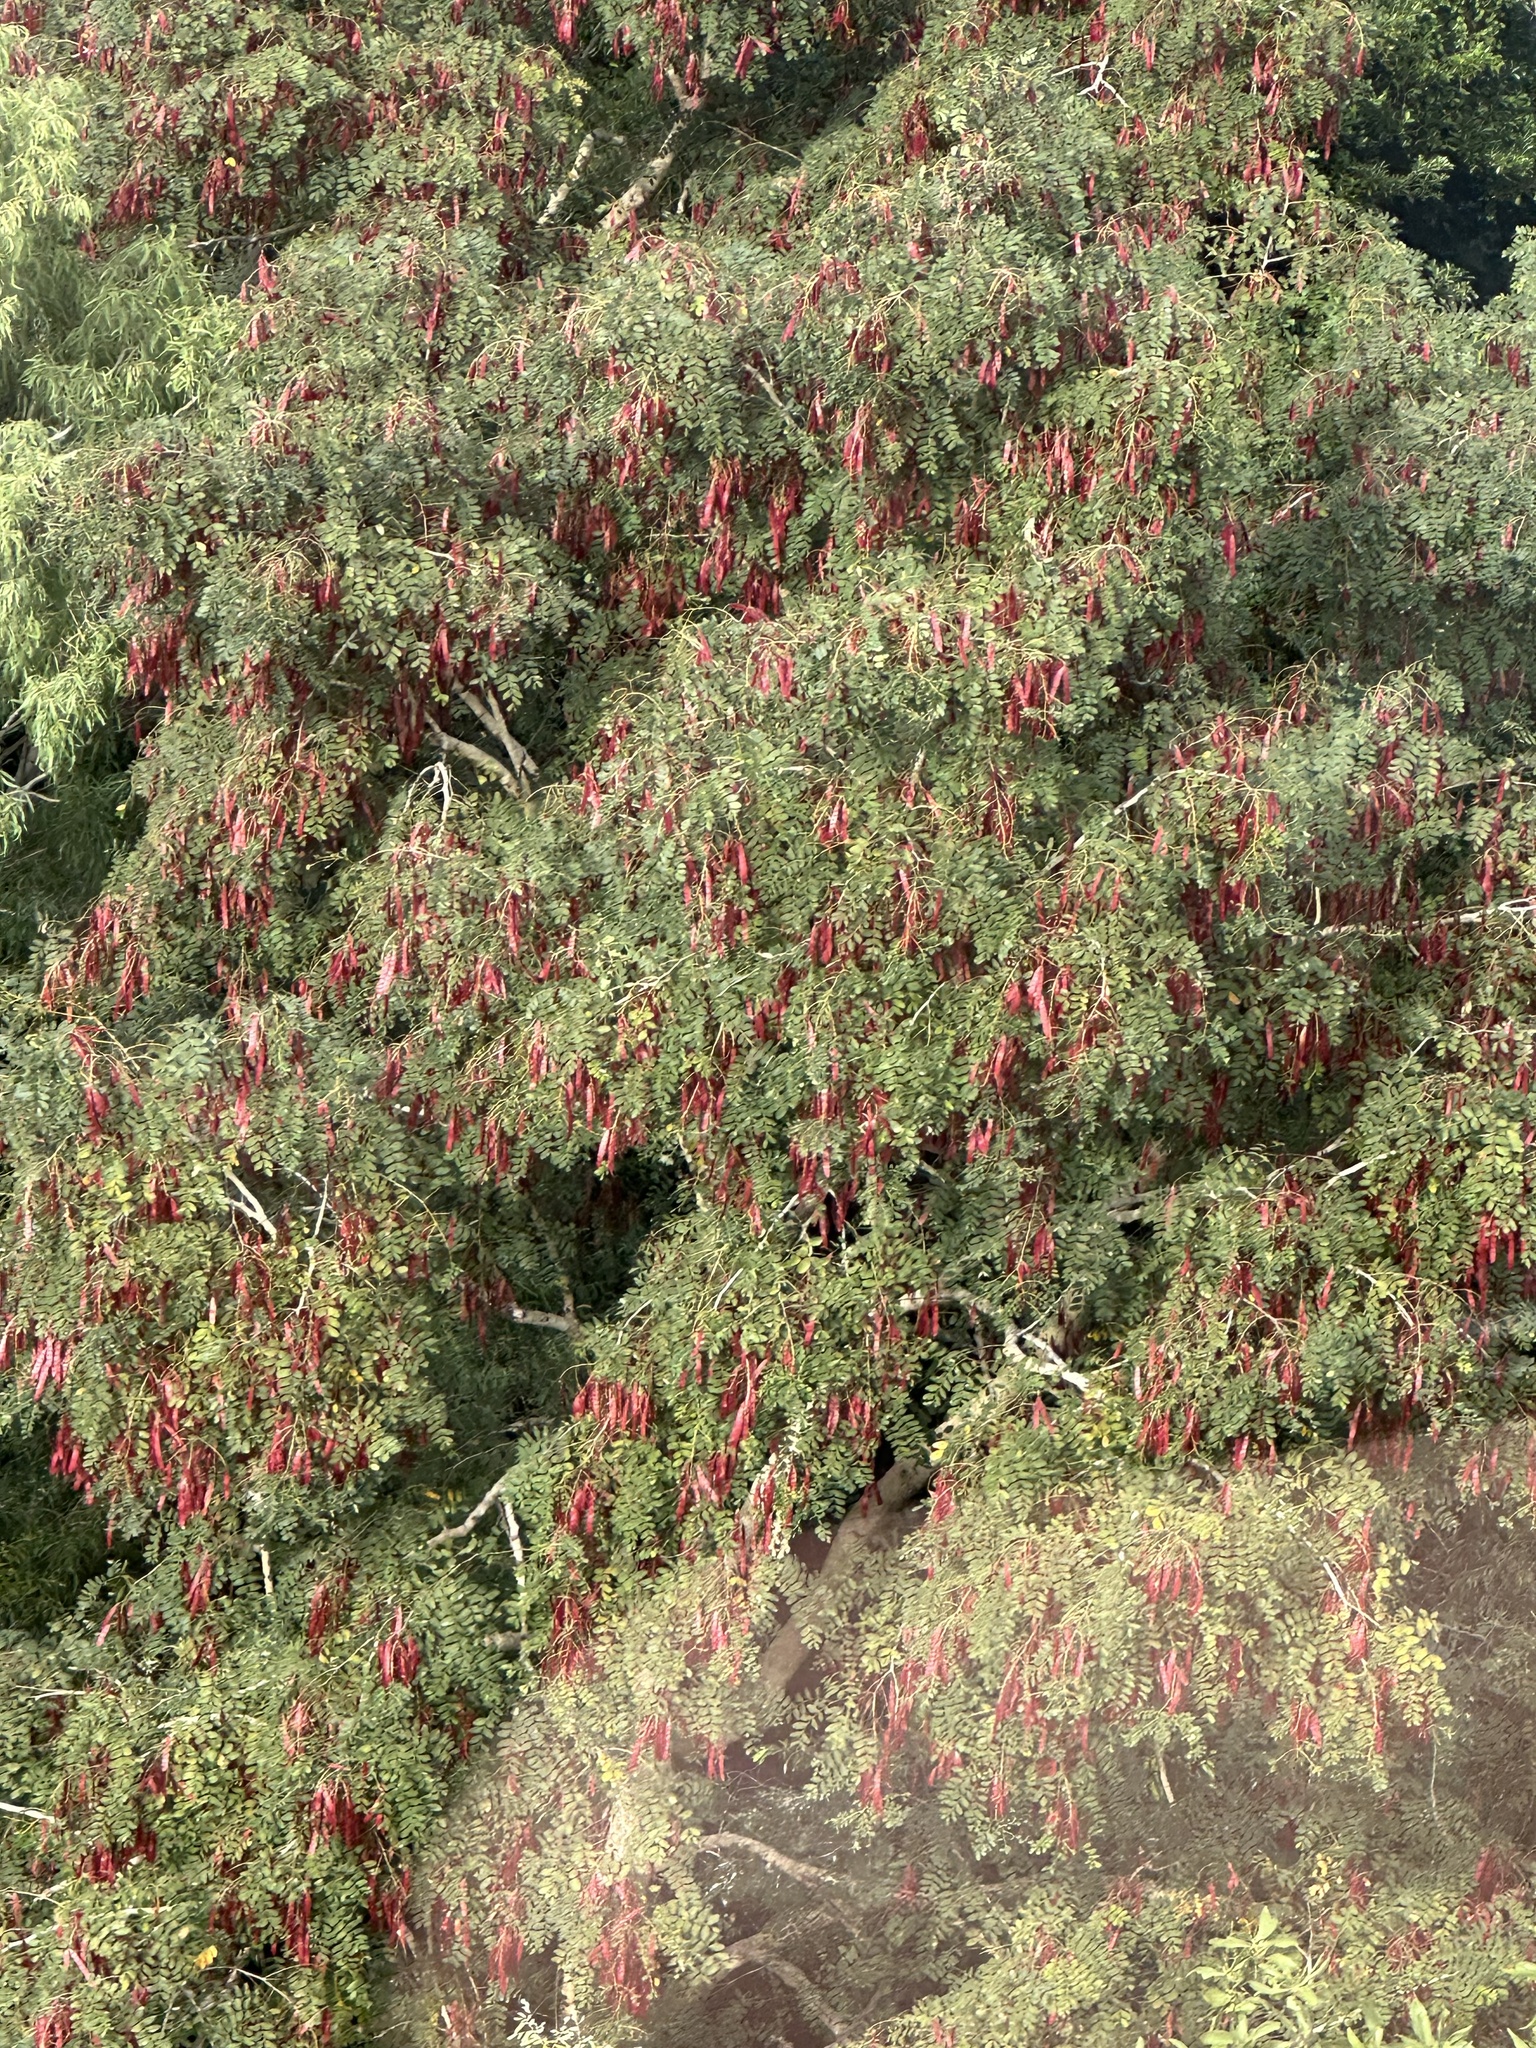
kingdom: Plantae
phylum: Tracheophyta
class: Magnoliopsida
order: Fabales
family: Fabaceae
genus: Albizia
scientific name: Albizia procera
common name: Tall albizia
